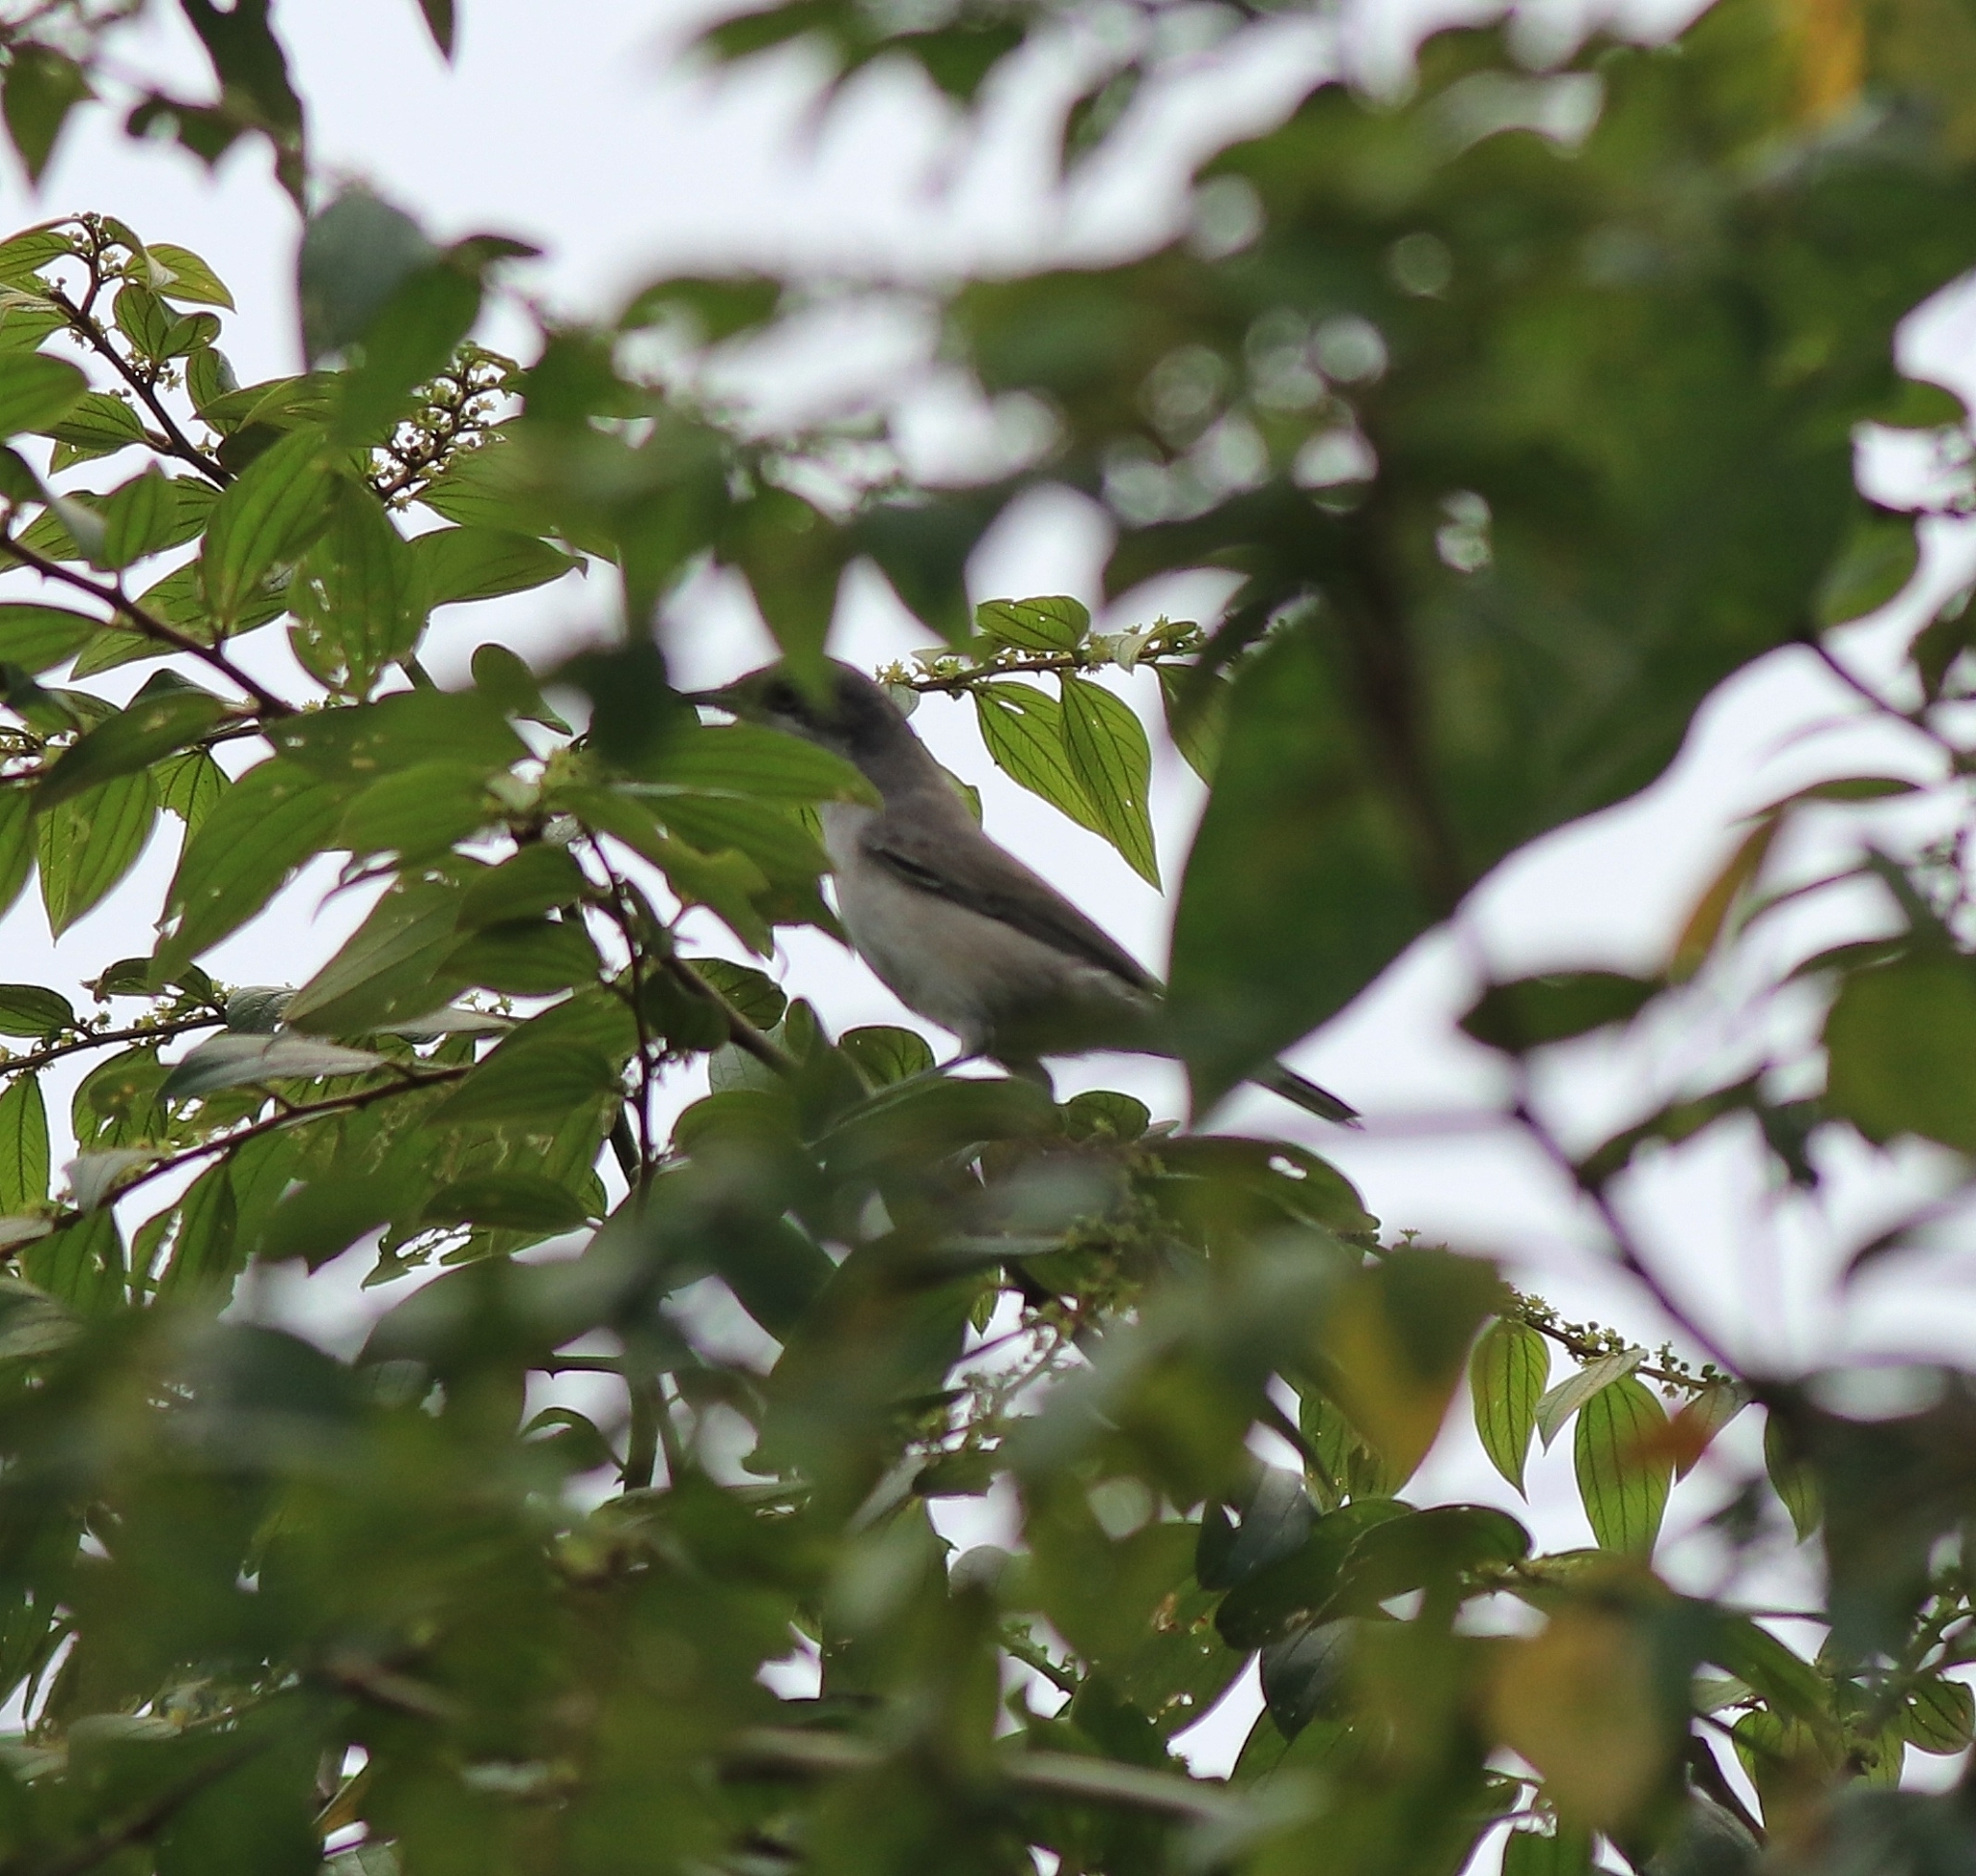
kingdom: Animalia
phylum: Chordata
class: Aves
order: Passeriformes
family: Sylviidae
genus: Sylvia
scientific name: Sylvia curruca
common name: Lesser whitethroat
